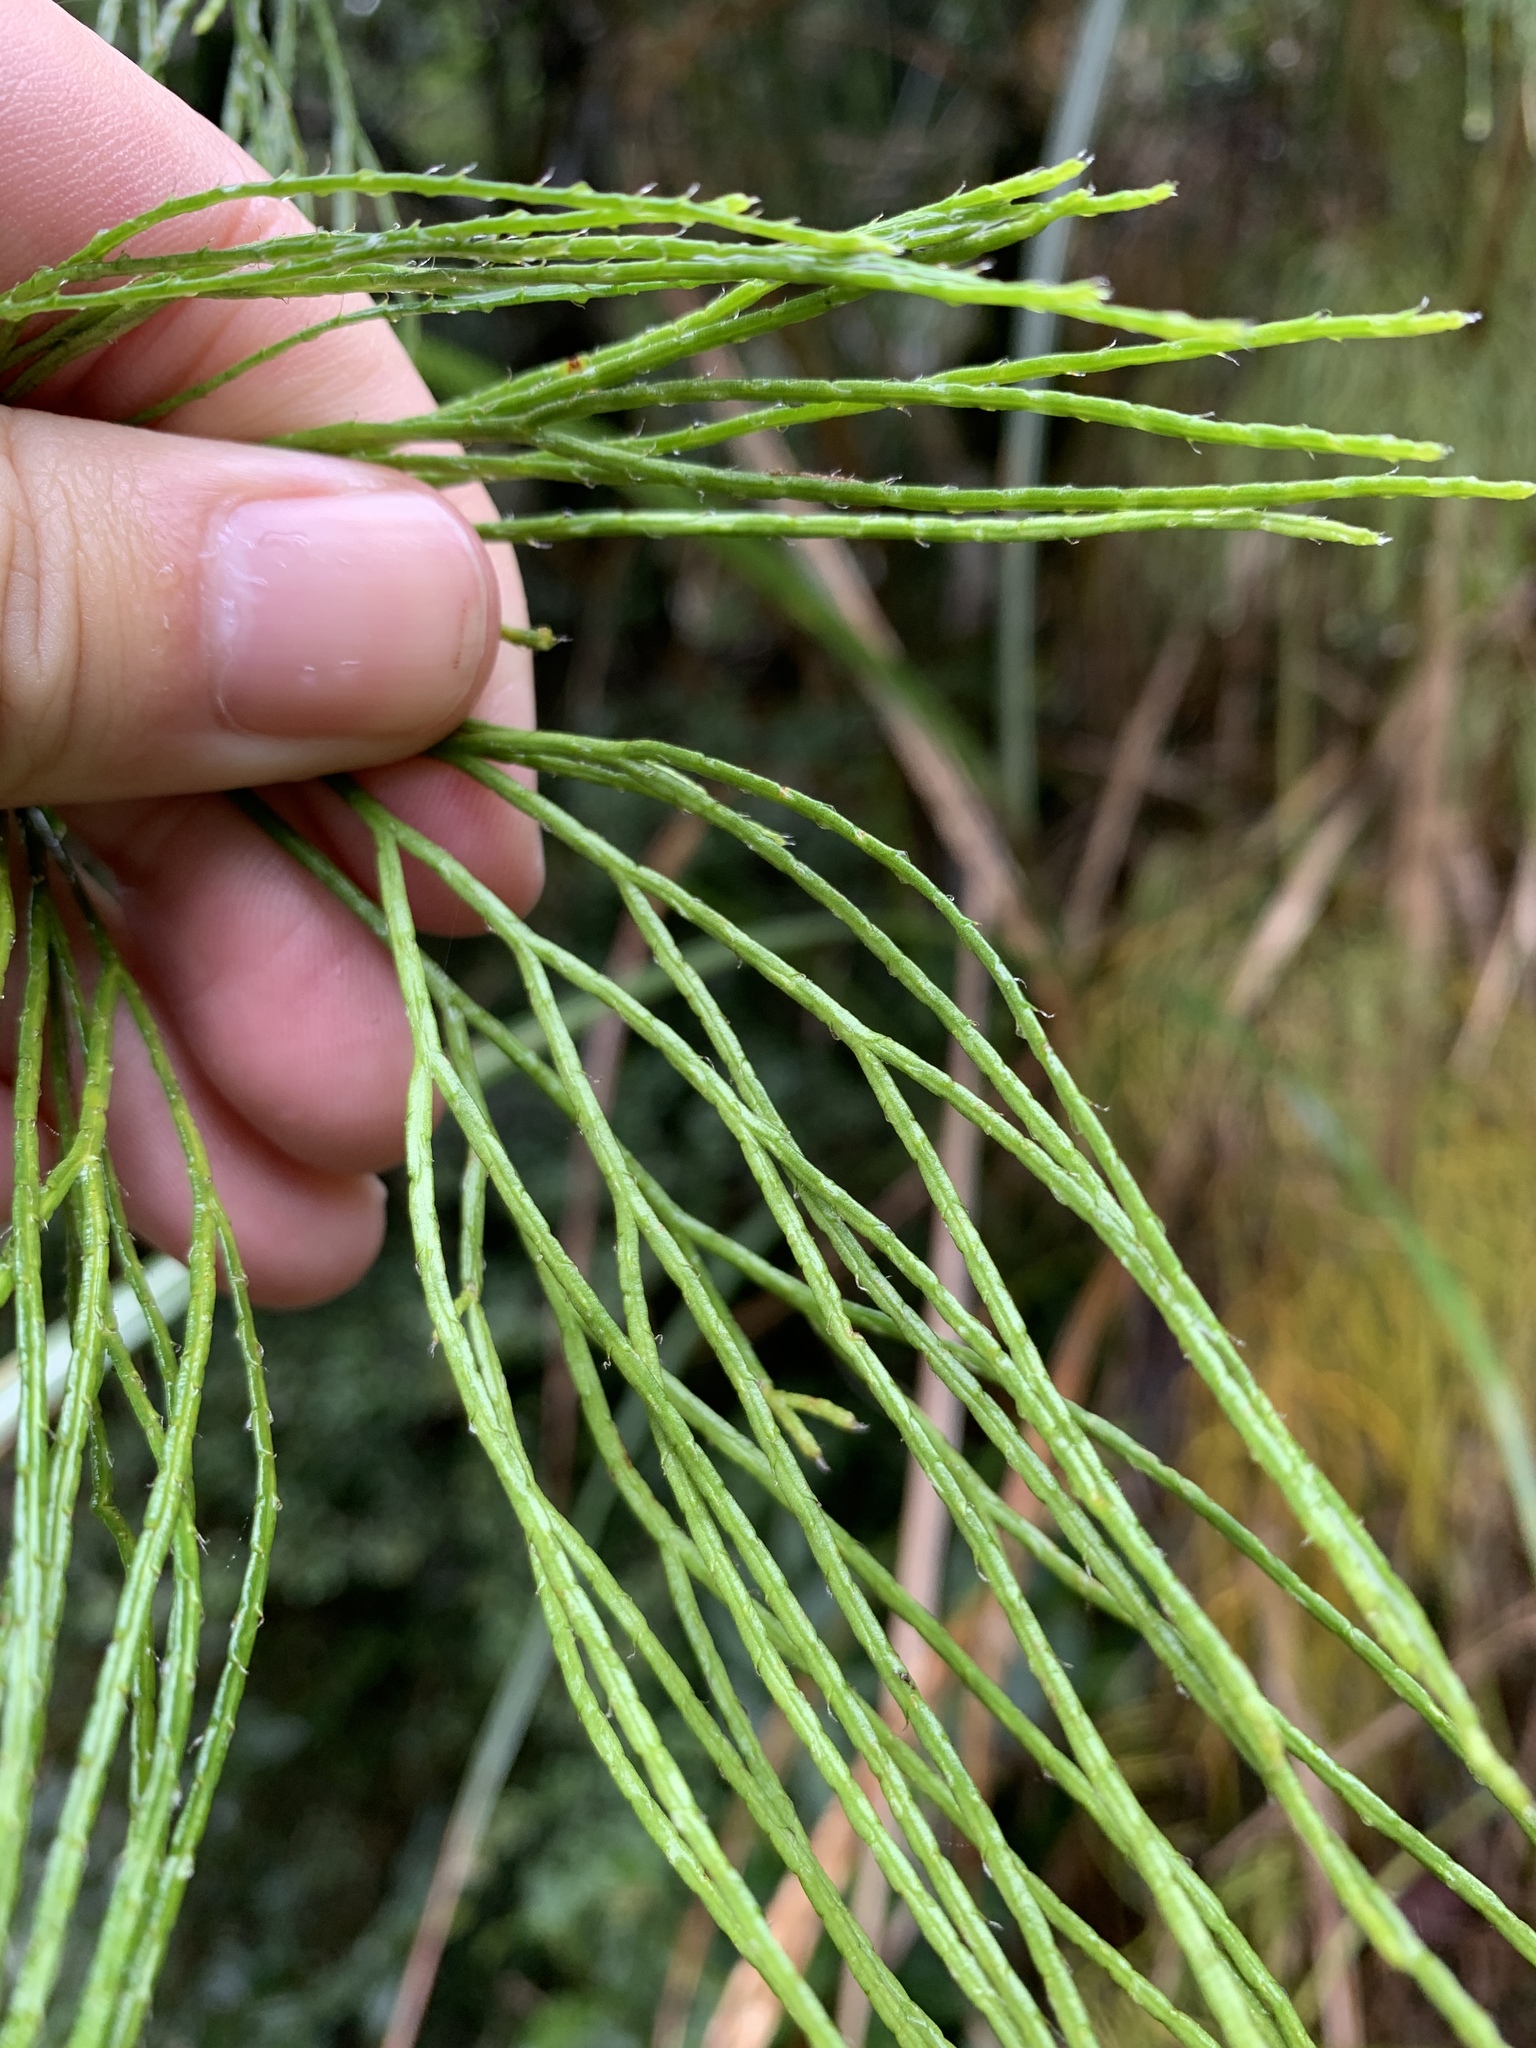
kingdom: Plantae
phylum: Tracheophyta
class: Lycopodiopsida
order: Lycopodiales
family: Lycopodiaceae
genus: Lycopodiastrum
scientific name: Lycopodiastrum casuarinoides
